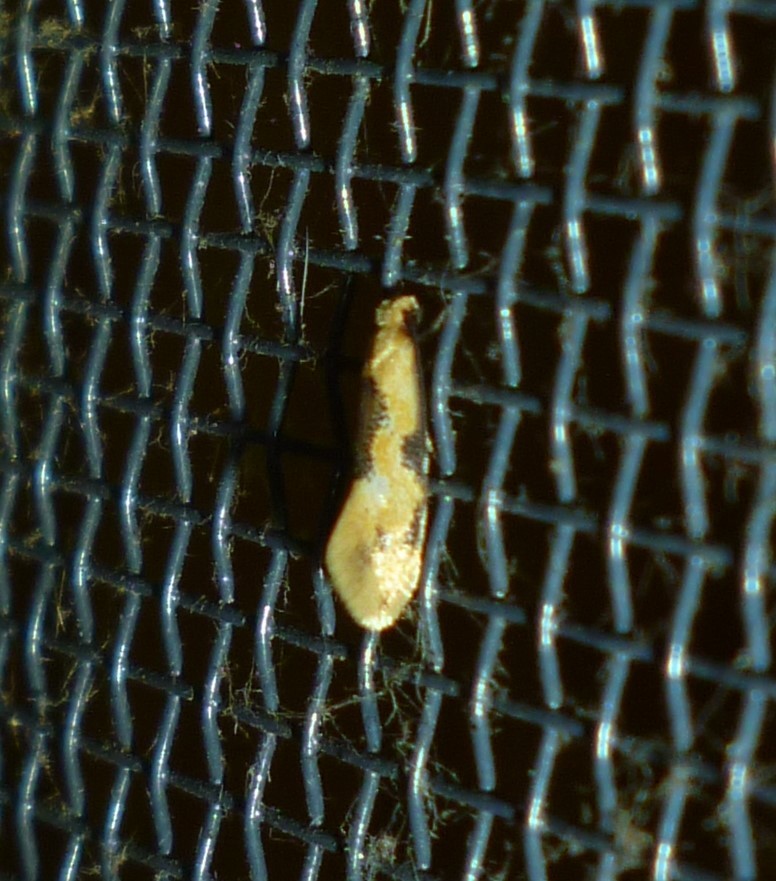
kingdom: Animalia
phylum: Arthropoda
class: Insecta
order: Lepidoptera
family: Meessiidae
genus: Hybroma
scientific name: Hybroma servulella
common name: Yellow wave moth
